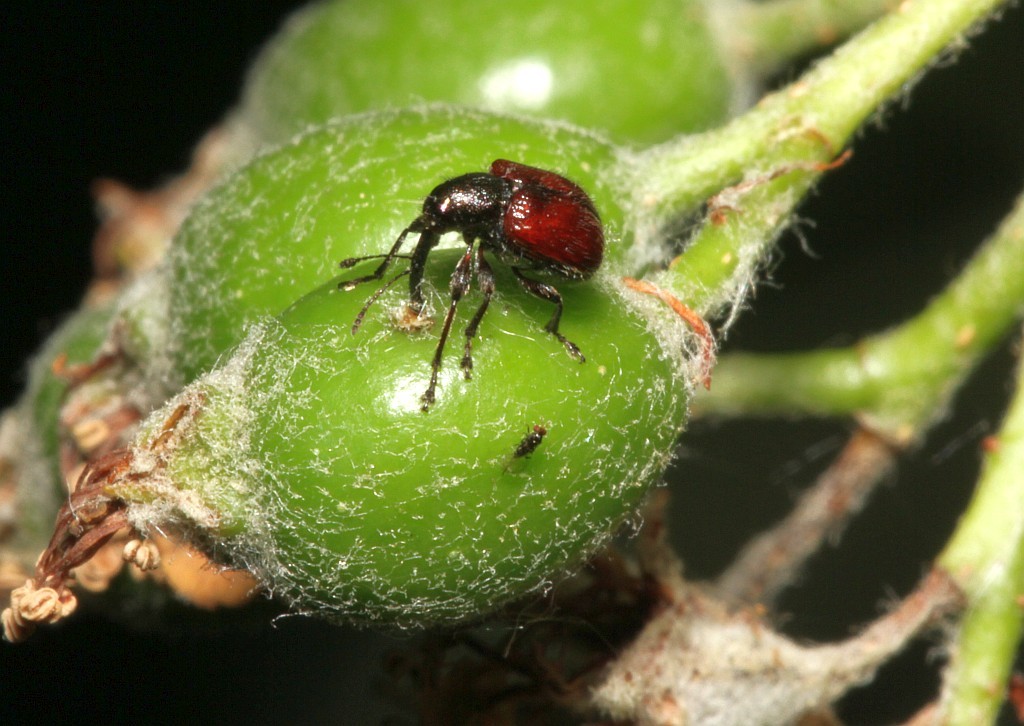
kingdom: Animalia
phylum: Arthropoda
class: Insecta
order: Coleoptera
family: Rhynchitidae
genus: Tatianaerhynchites
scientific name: Tatianaerhynchites aequatus
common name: Apple fruit rhynchites
